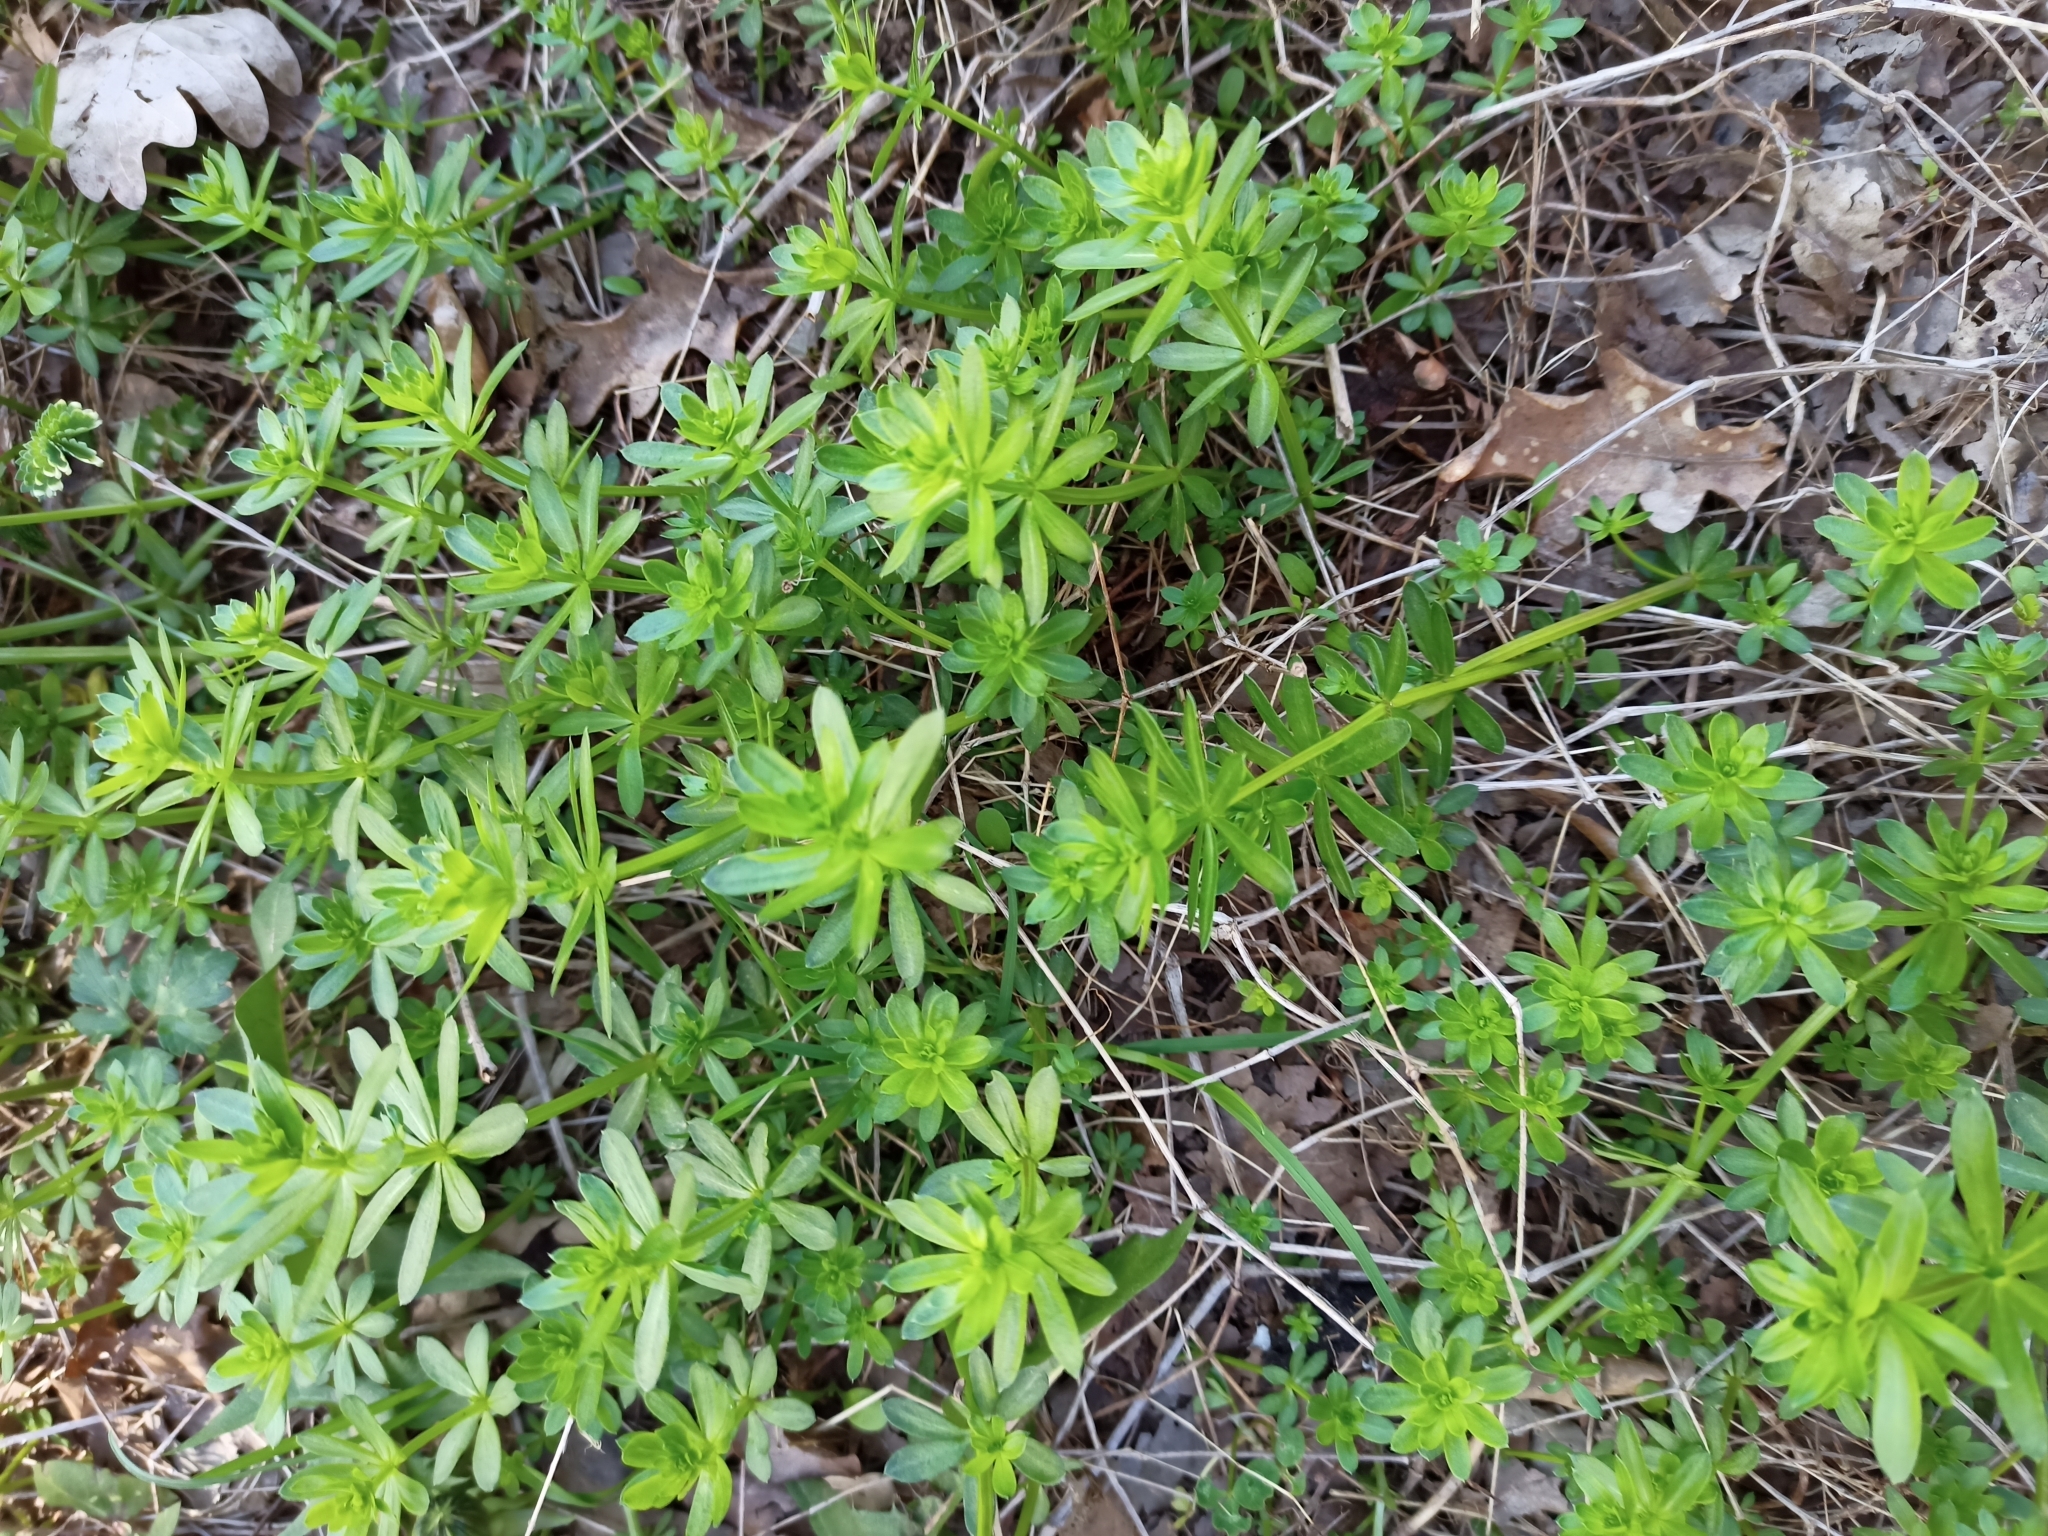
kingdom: Plantae
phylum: Tracheophyta
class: Magnoliopsida
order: Gentianales
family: Rubiaceae
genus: Galium
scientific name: Galium mollugo
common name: Hedge bedstraw
